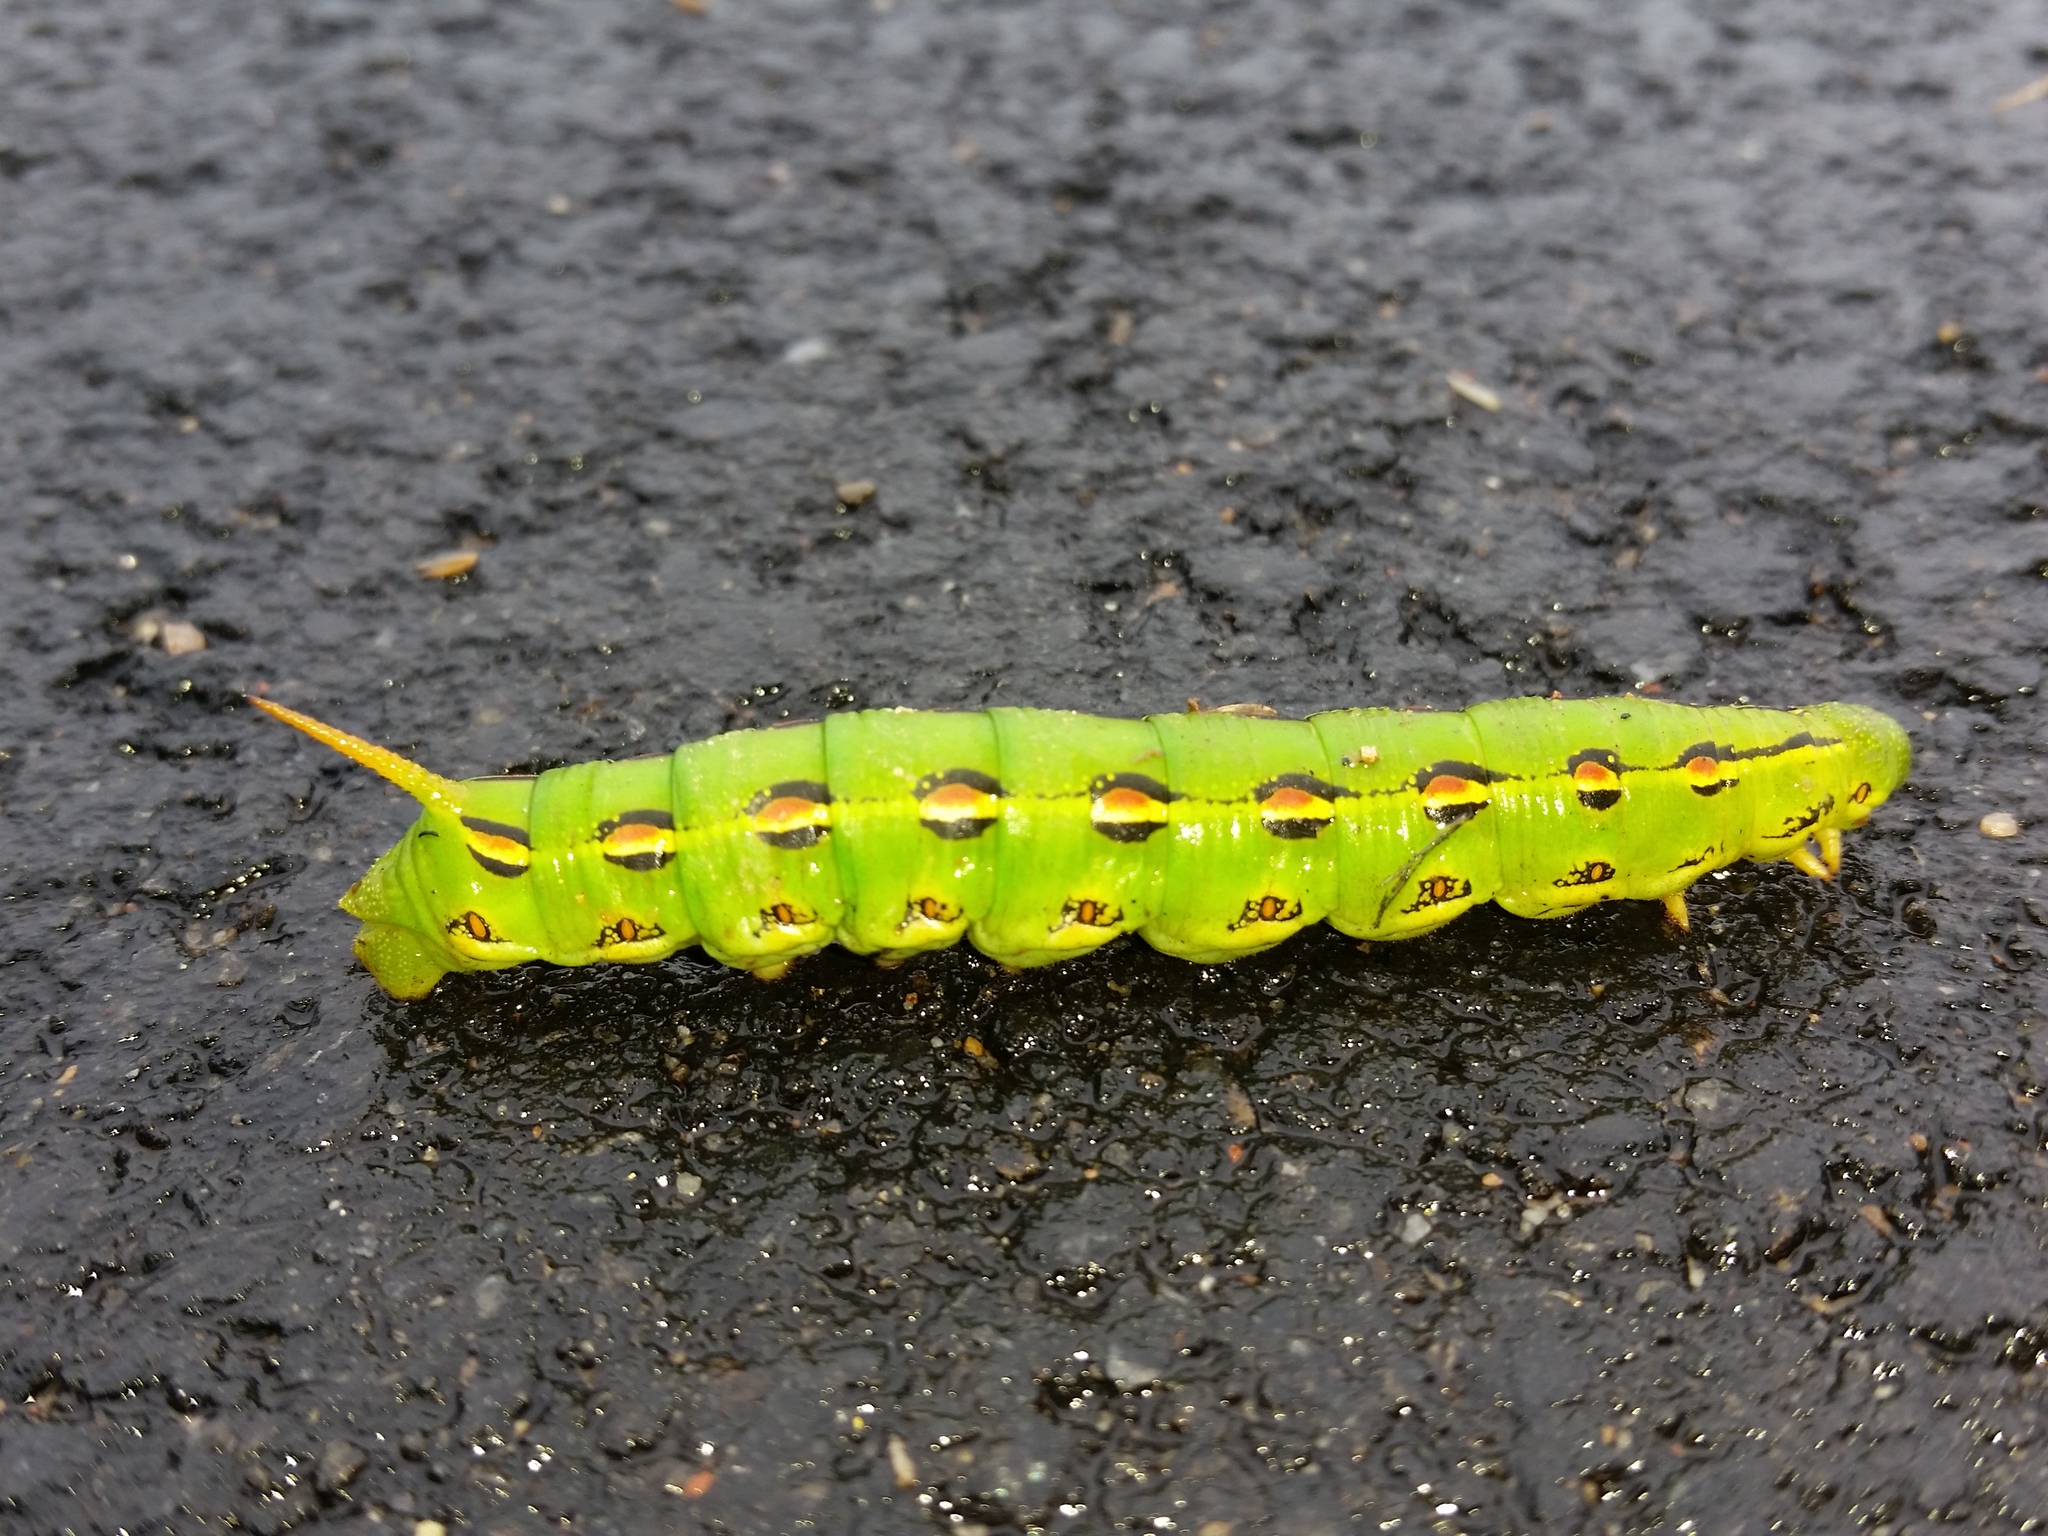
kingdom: Animalia
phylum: Arthropoda
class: Insecta
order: Lepidoptera
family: Sphingidae
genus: Hyles
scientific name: Hyles lineata
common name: White-lined sphinx
